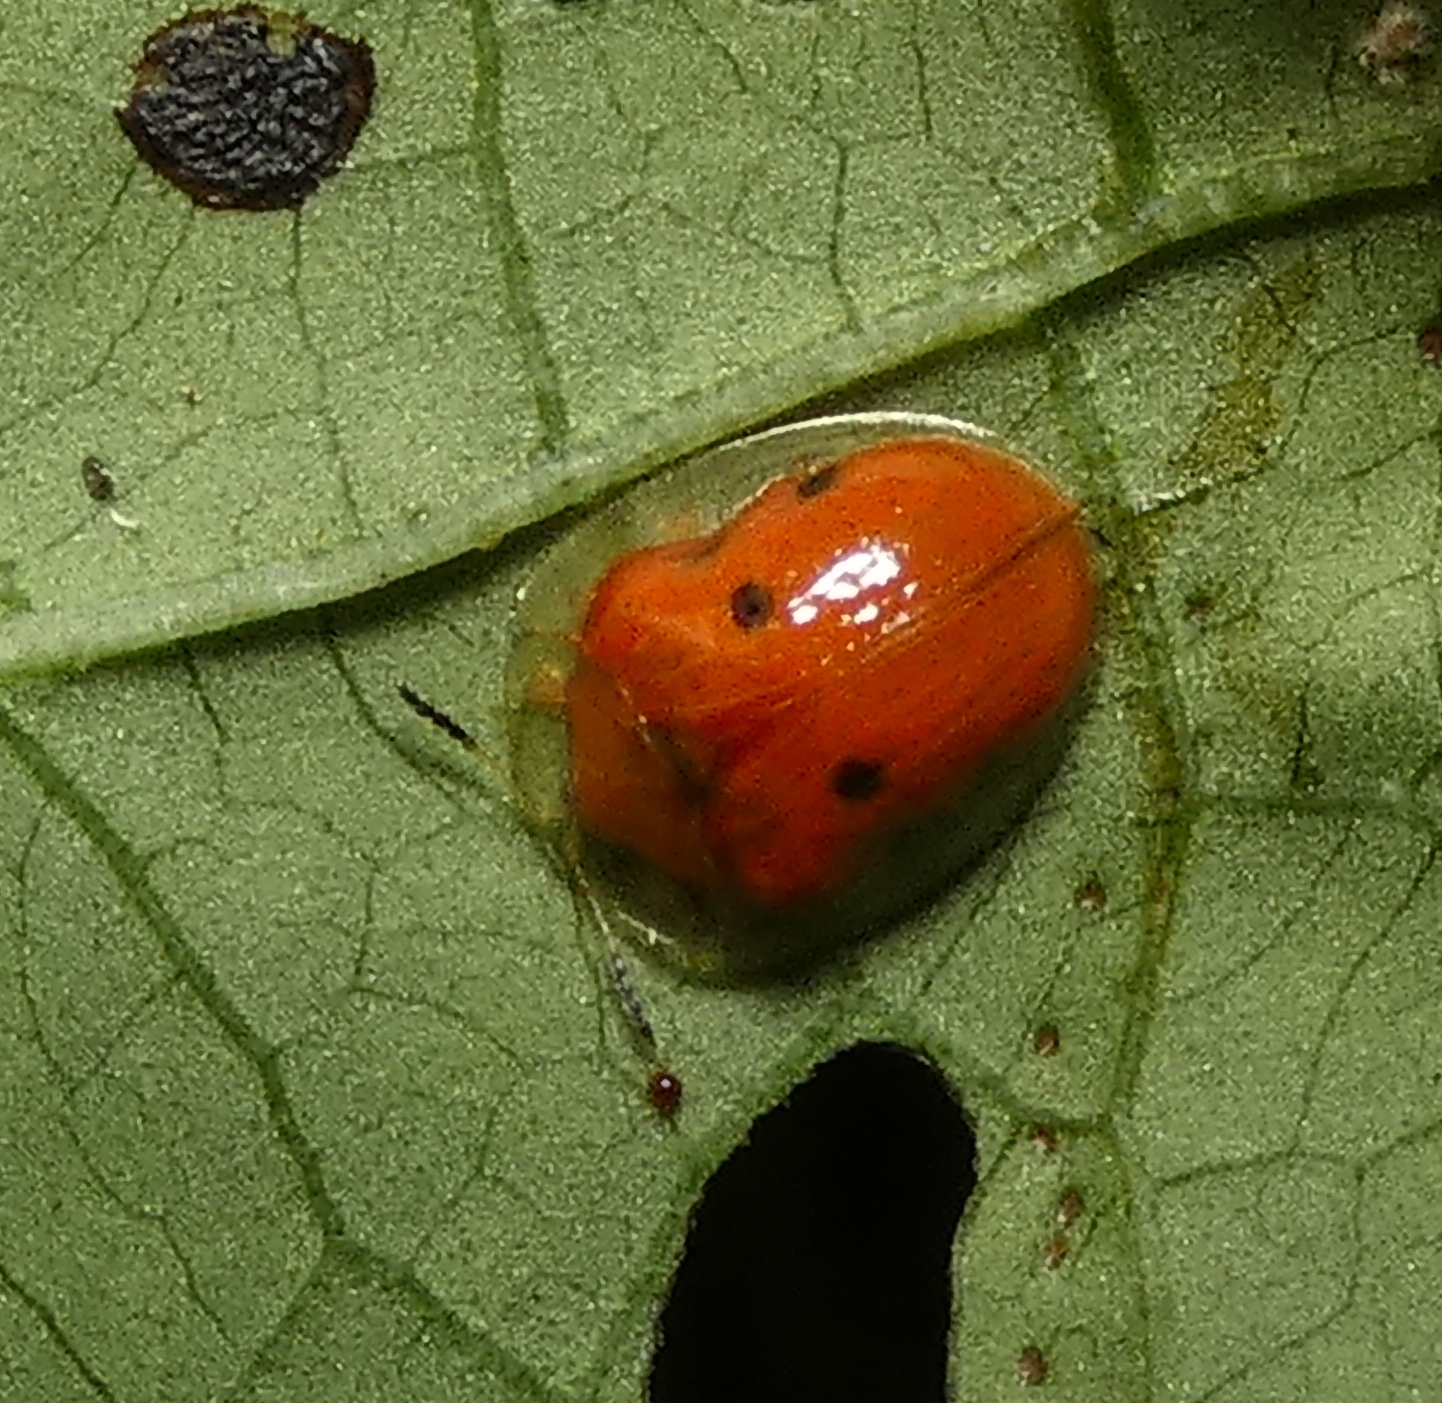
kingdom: Animalia
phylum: Arthropoda
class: Insecta
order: Coleoptera
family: Chrysomelidae
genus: Charidotella
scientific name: Charidotella sexpunctata
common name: Golden tortoise beetle
